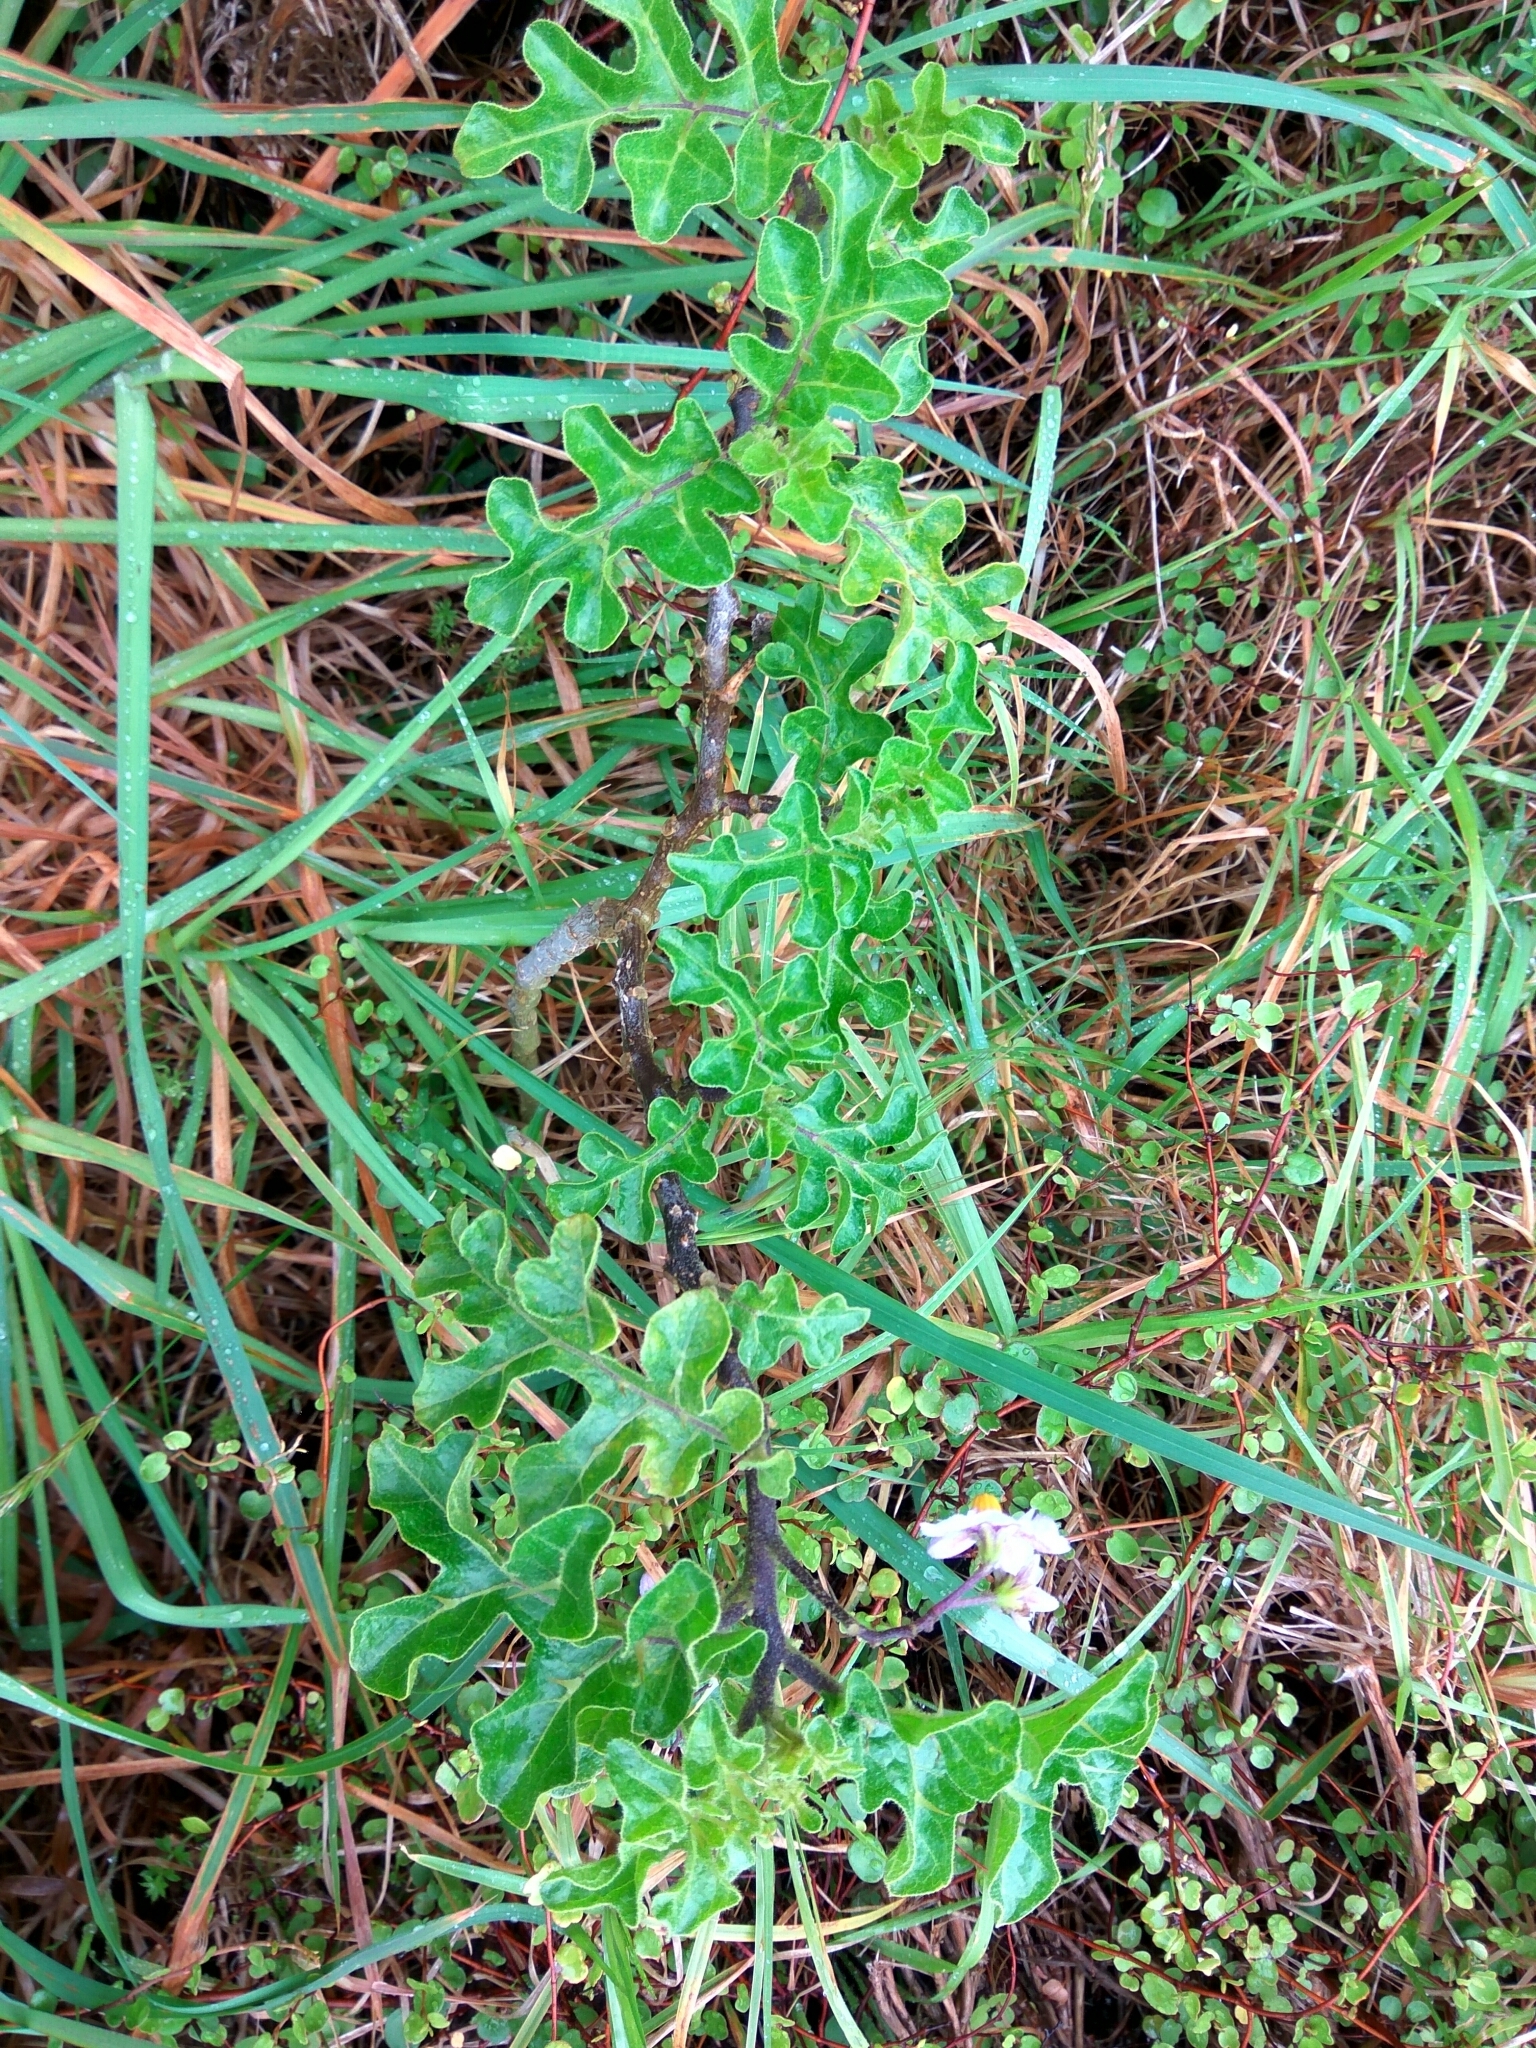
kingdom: Plantae
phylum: Tracheophyta
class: Magnoliopsida
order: Solanales
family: Solanaceae
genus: Solanum
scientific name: Solanum linnaeanum
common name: Nightshade
